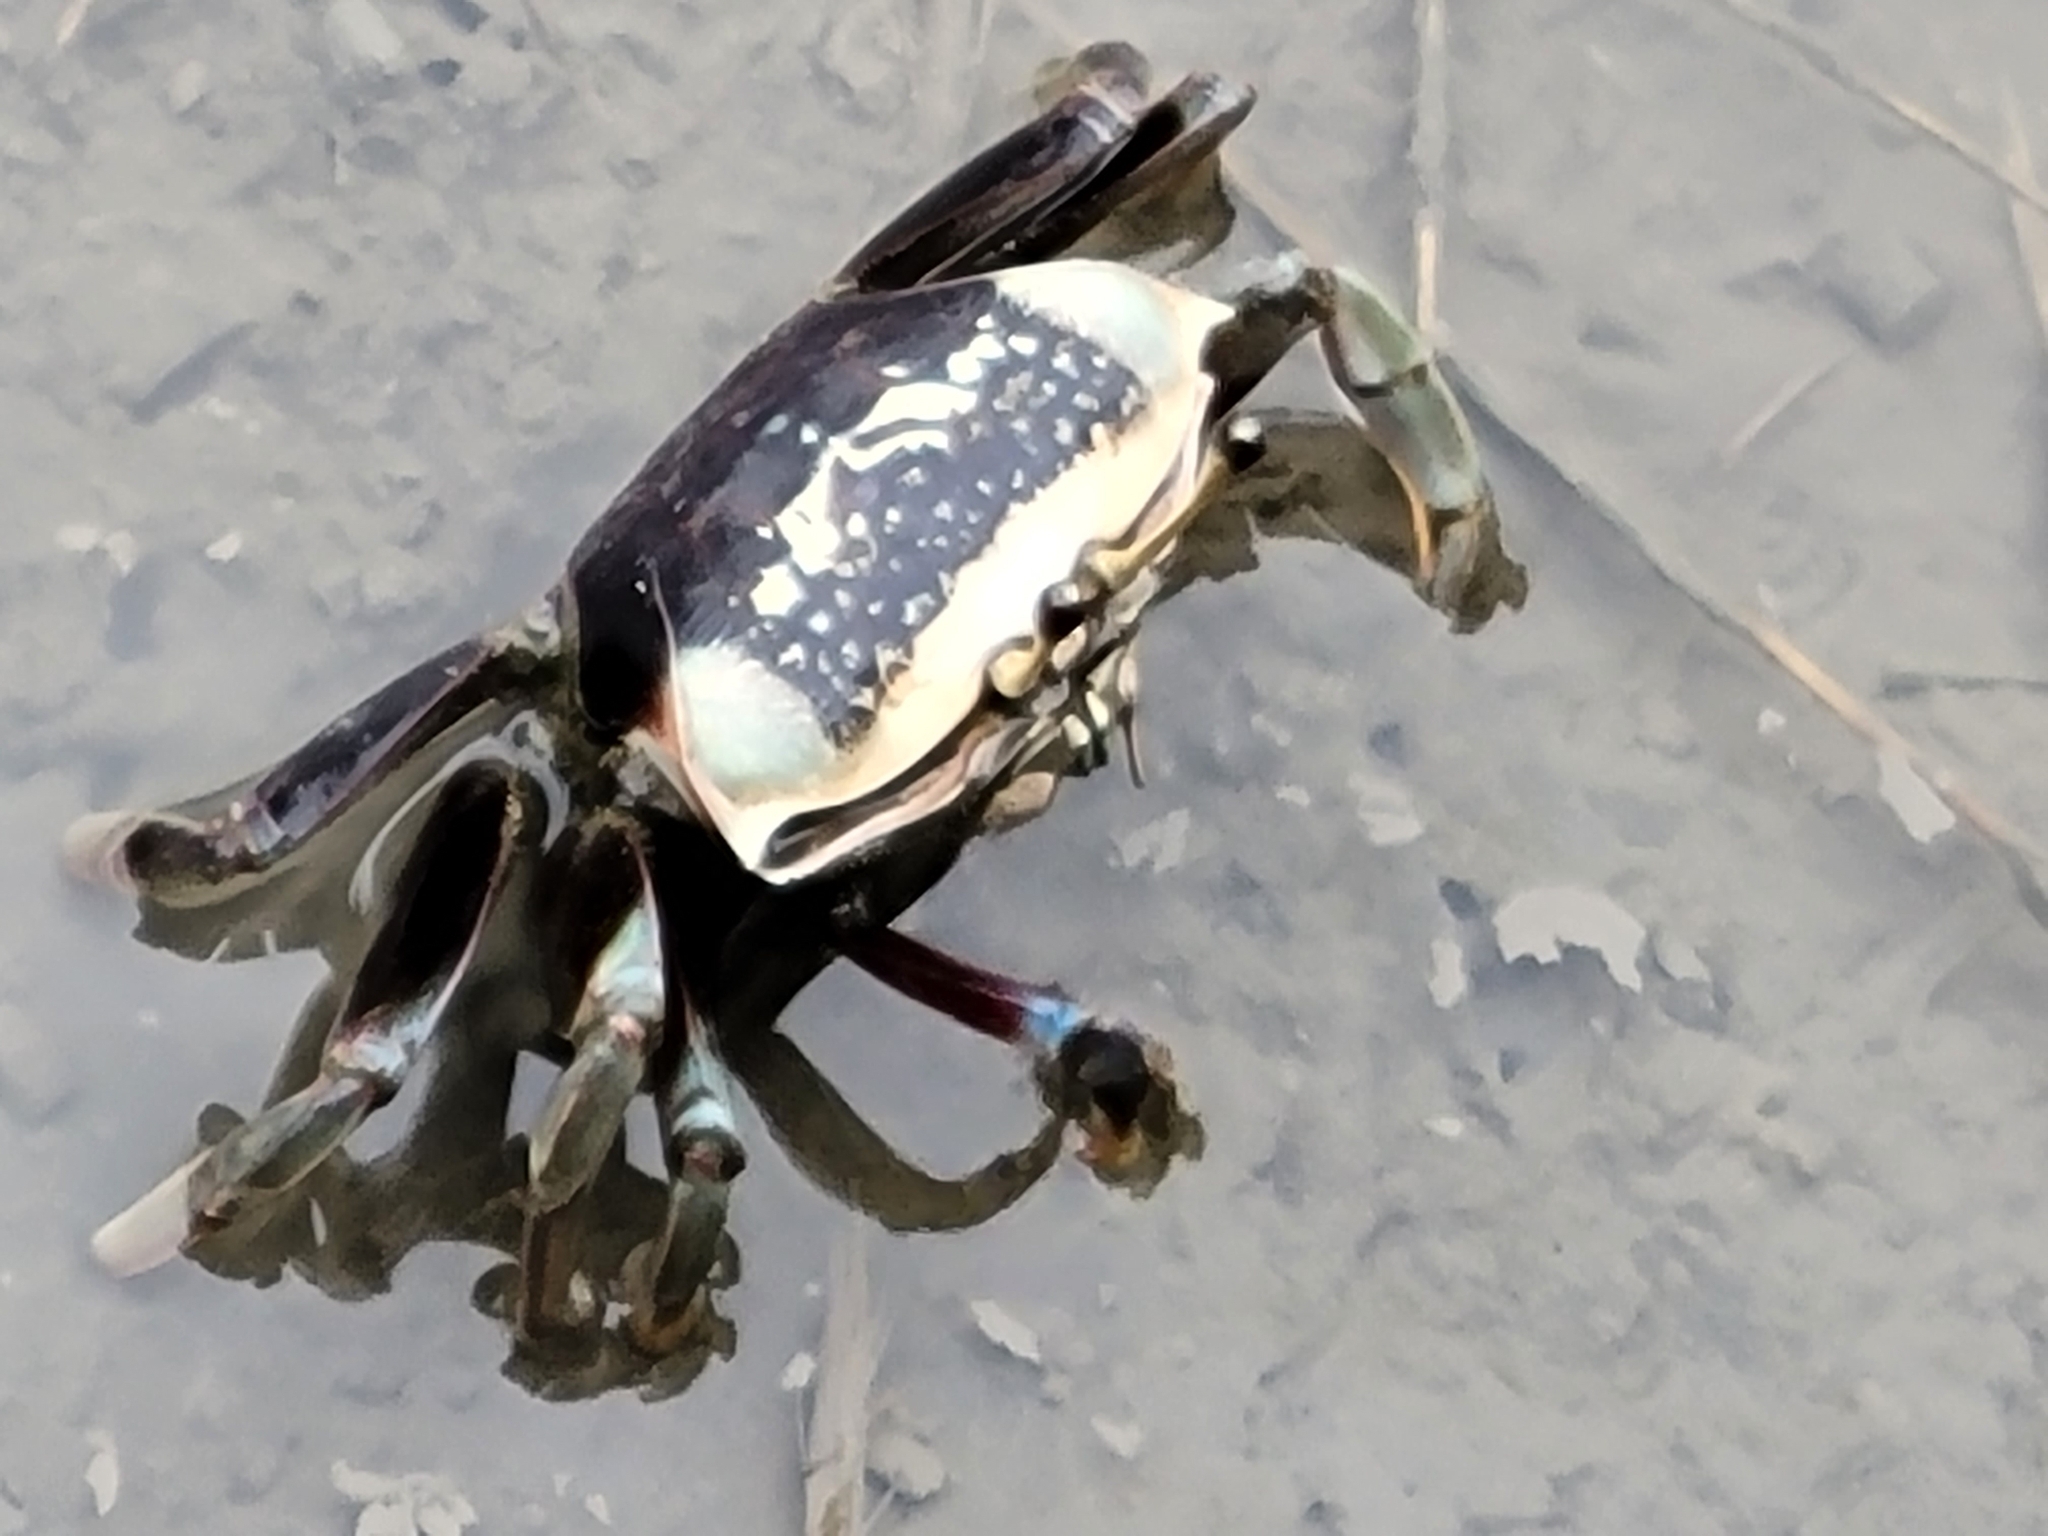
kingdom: Animalia
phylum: Arthropoda
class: Malacostraca
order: Decapoda
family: Ocypodidae
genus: Tubuca
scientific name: Tubuca arcuata
